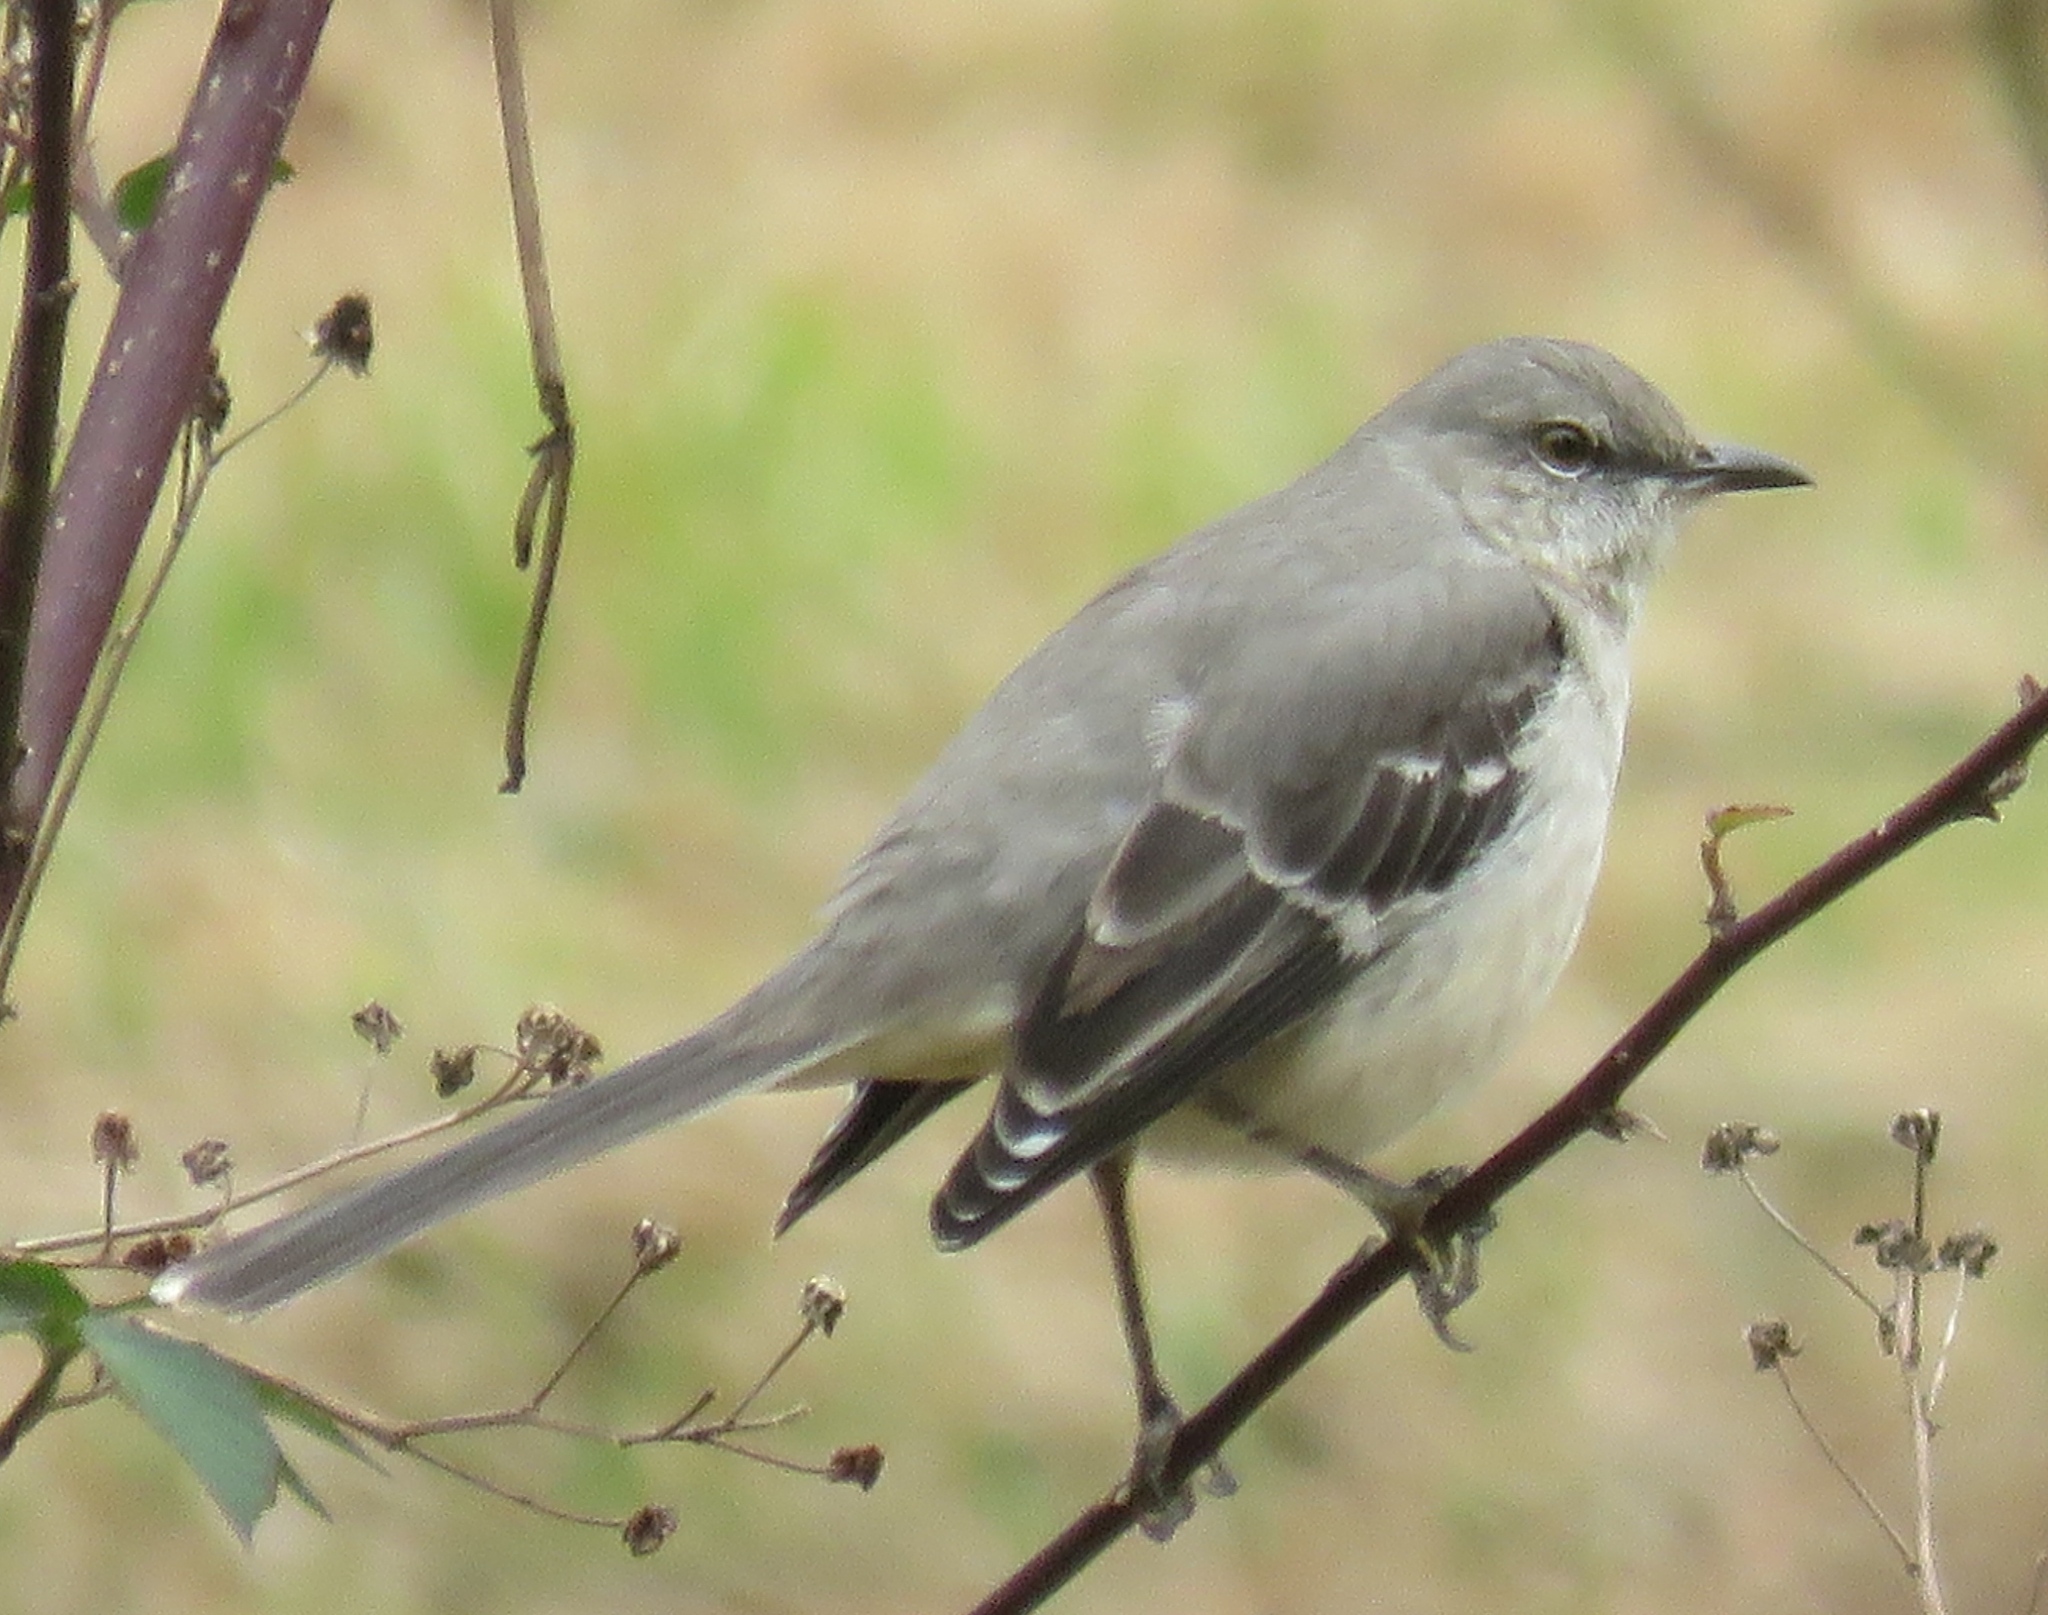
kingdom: Animalia
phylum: Chordata
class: Aves
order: Passeriformes
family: Mimidae
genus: Mimus
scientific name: Mimus polyglottos
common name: Northern mockingbird
